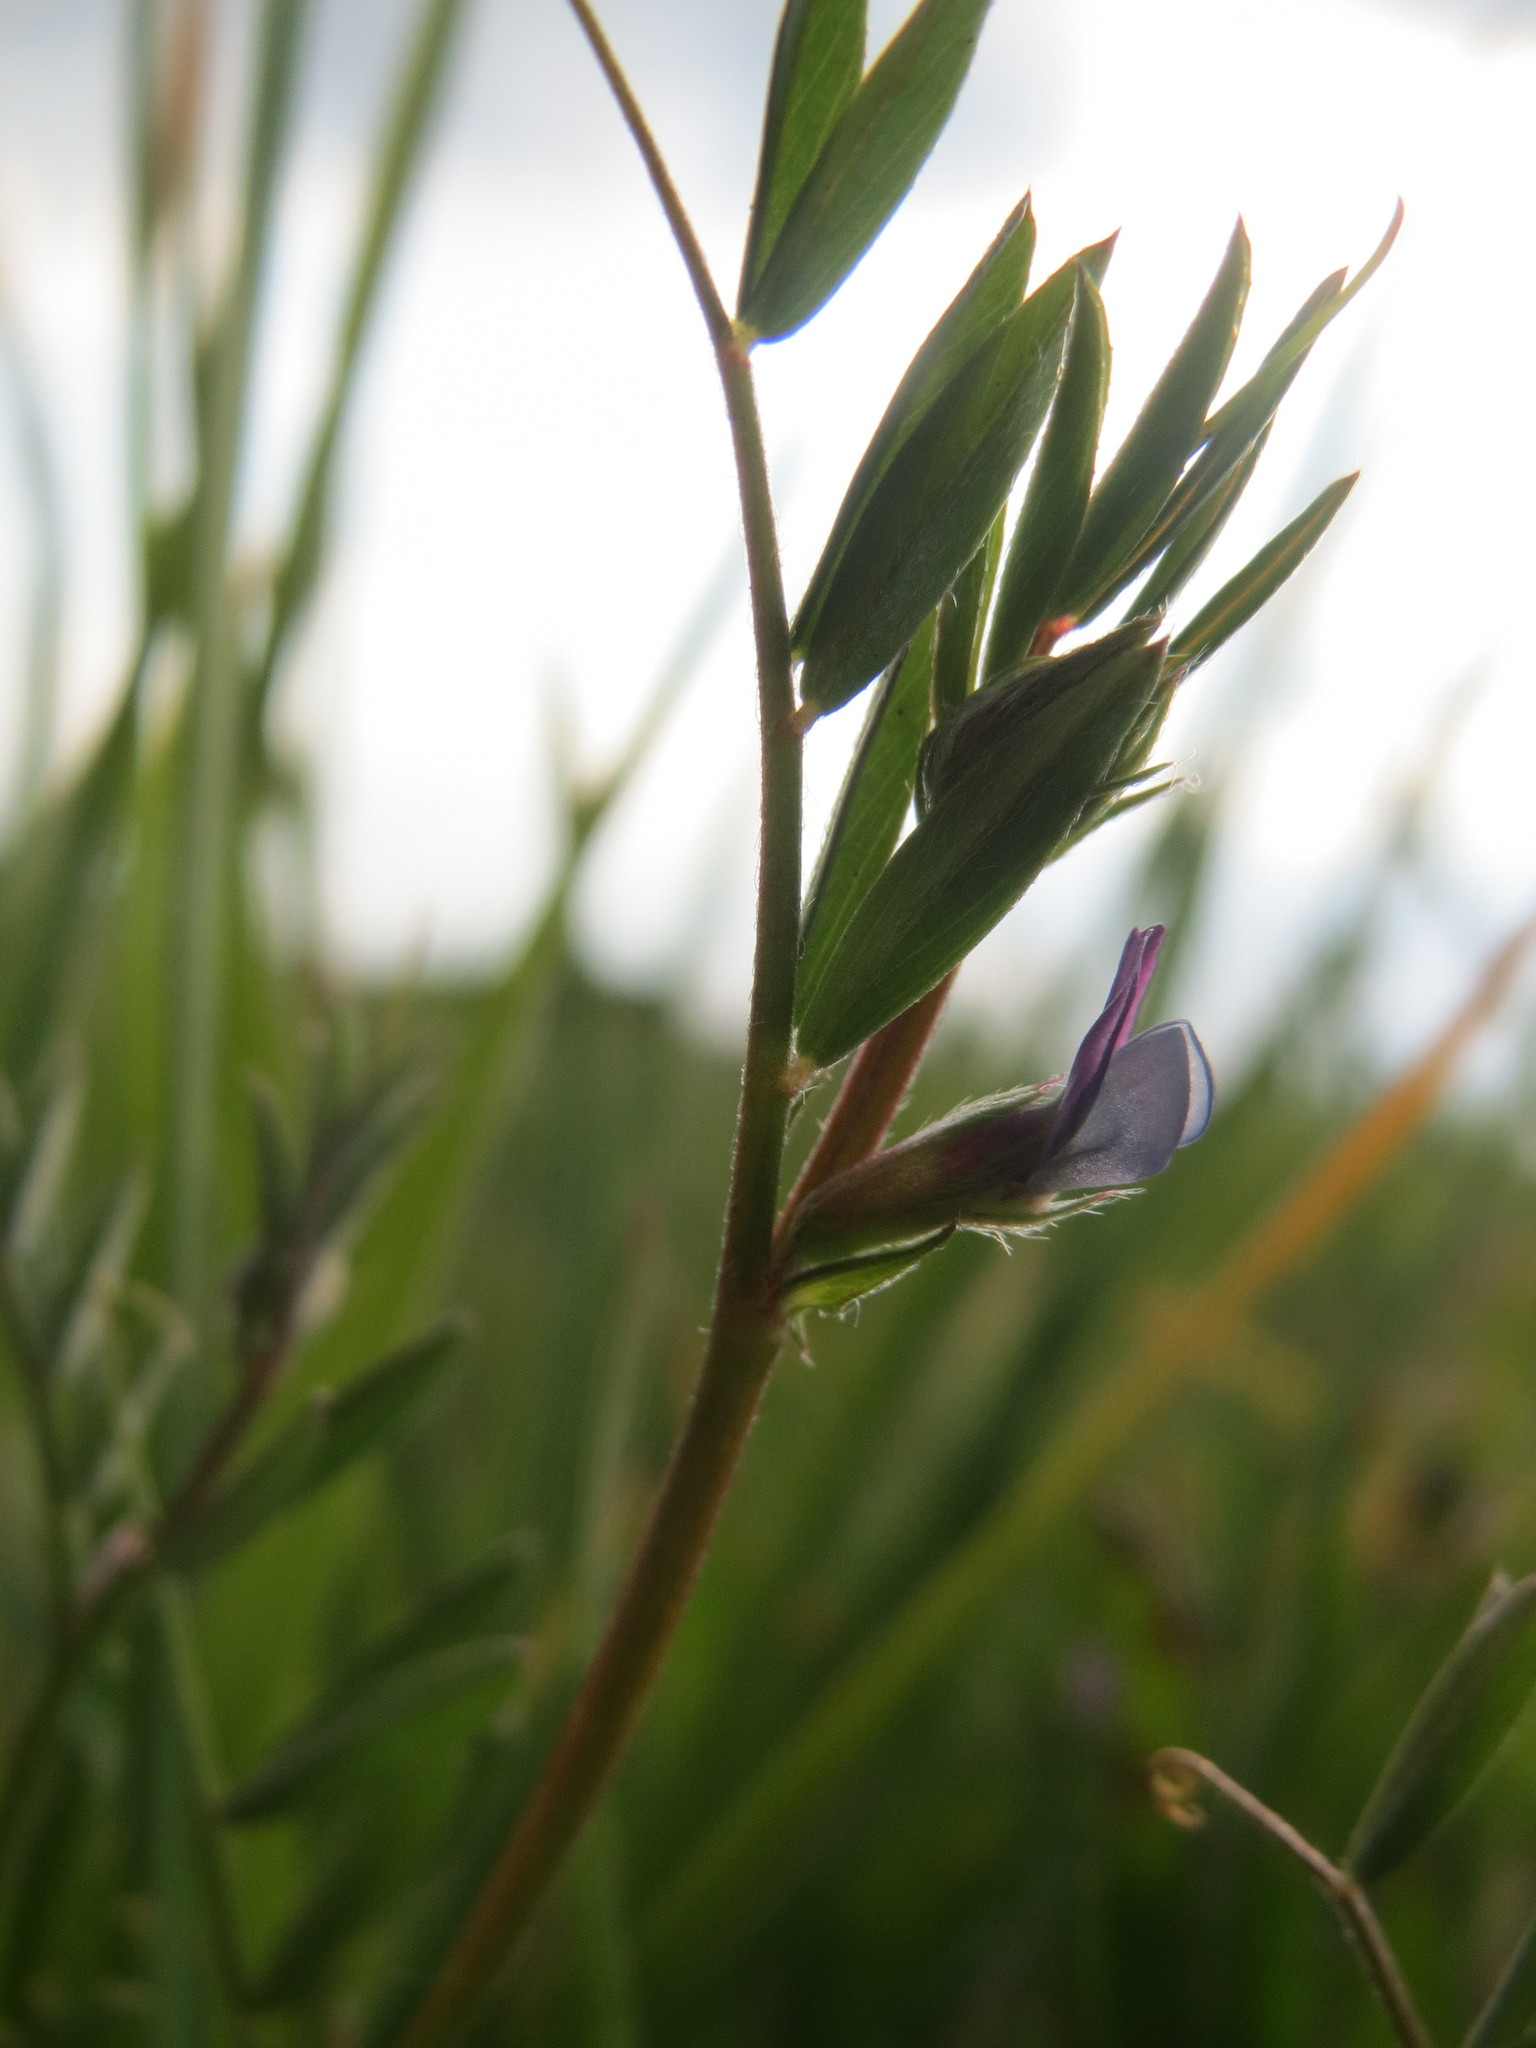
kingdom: Plantae
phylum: Tracheophyta
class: Magnoliopsida
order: Fabales
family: Fabaceae
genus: Vicia
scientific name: Vicia lathyroides
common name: Spring vetch
